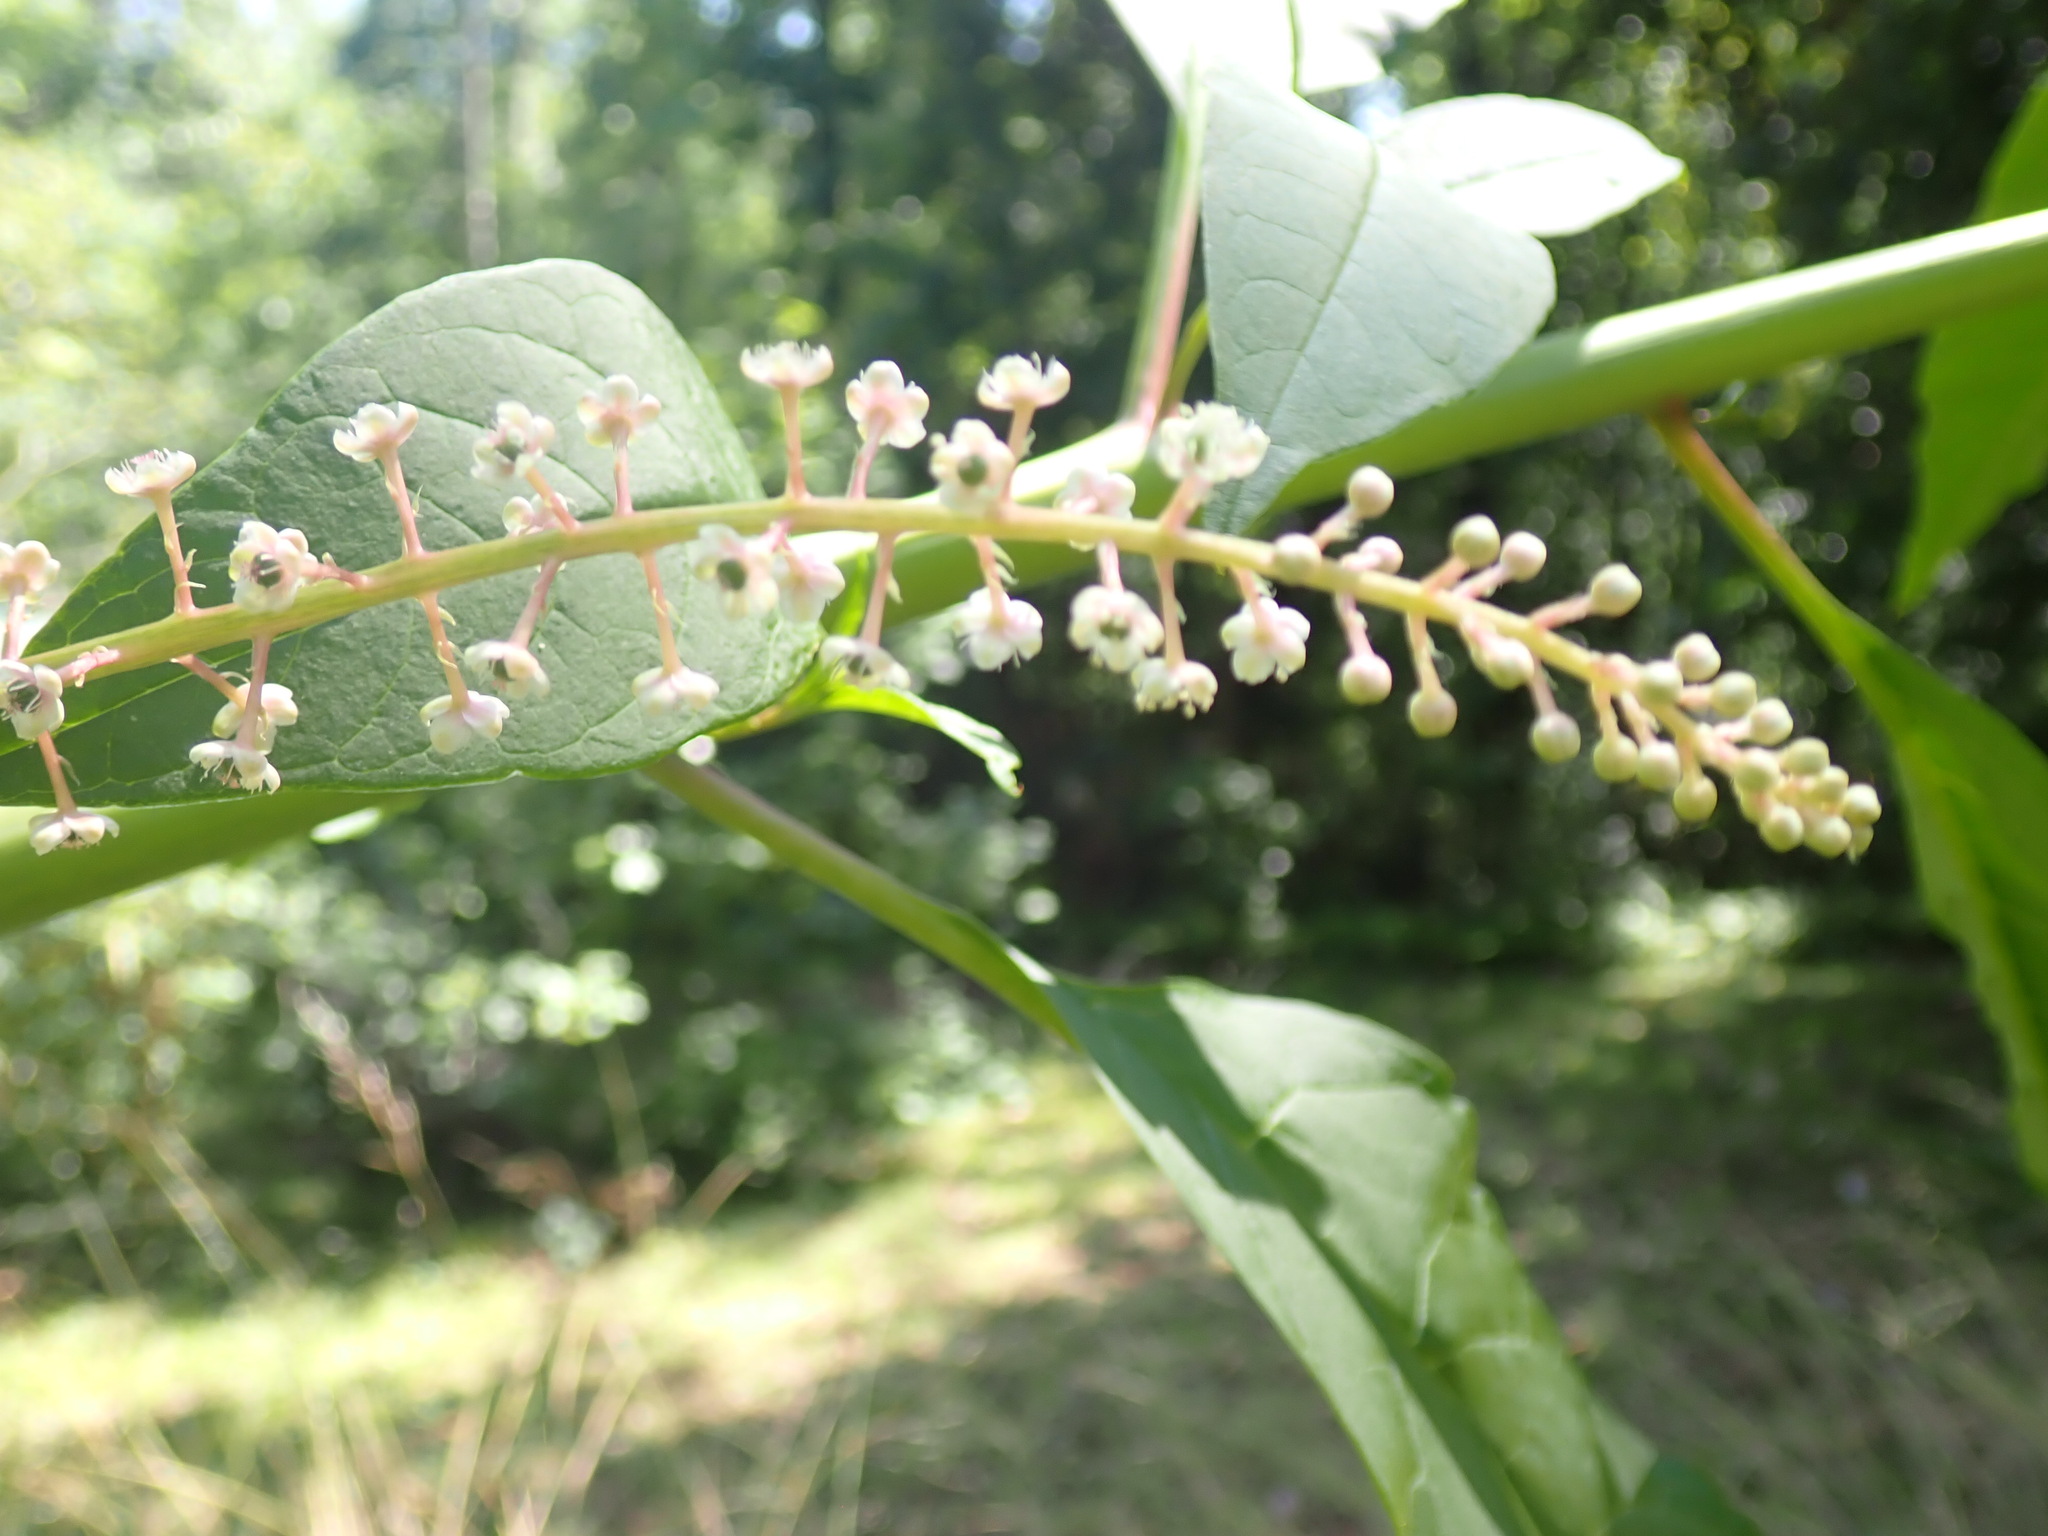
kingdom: Plantae
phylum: Tracheophyta
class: Magnoliopsida
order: Caryophyllales
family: Phytolaccaceae
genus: Phytolacca
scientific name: Phytolacca americana
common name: American pokeweed
